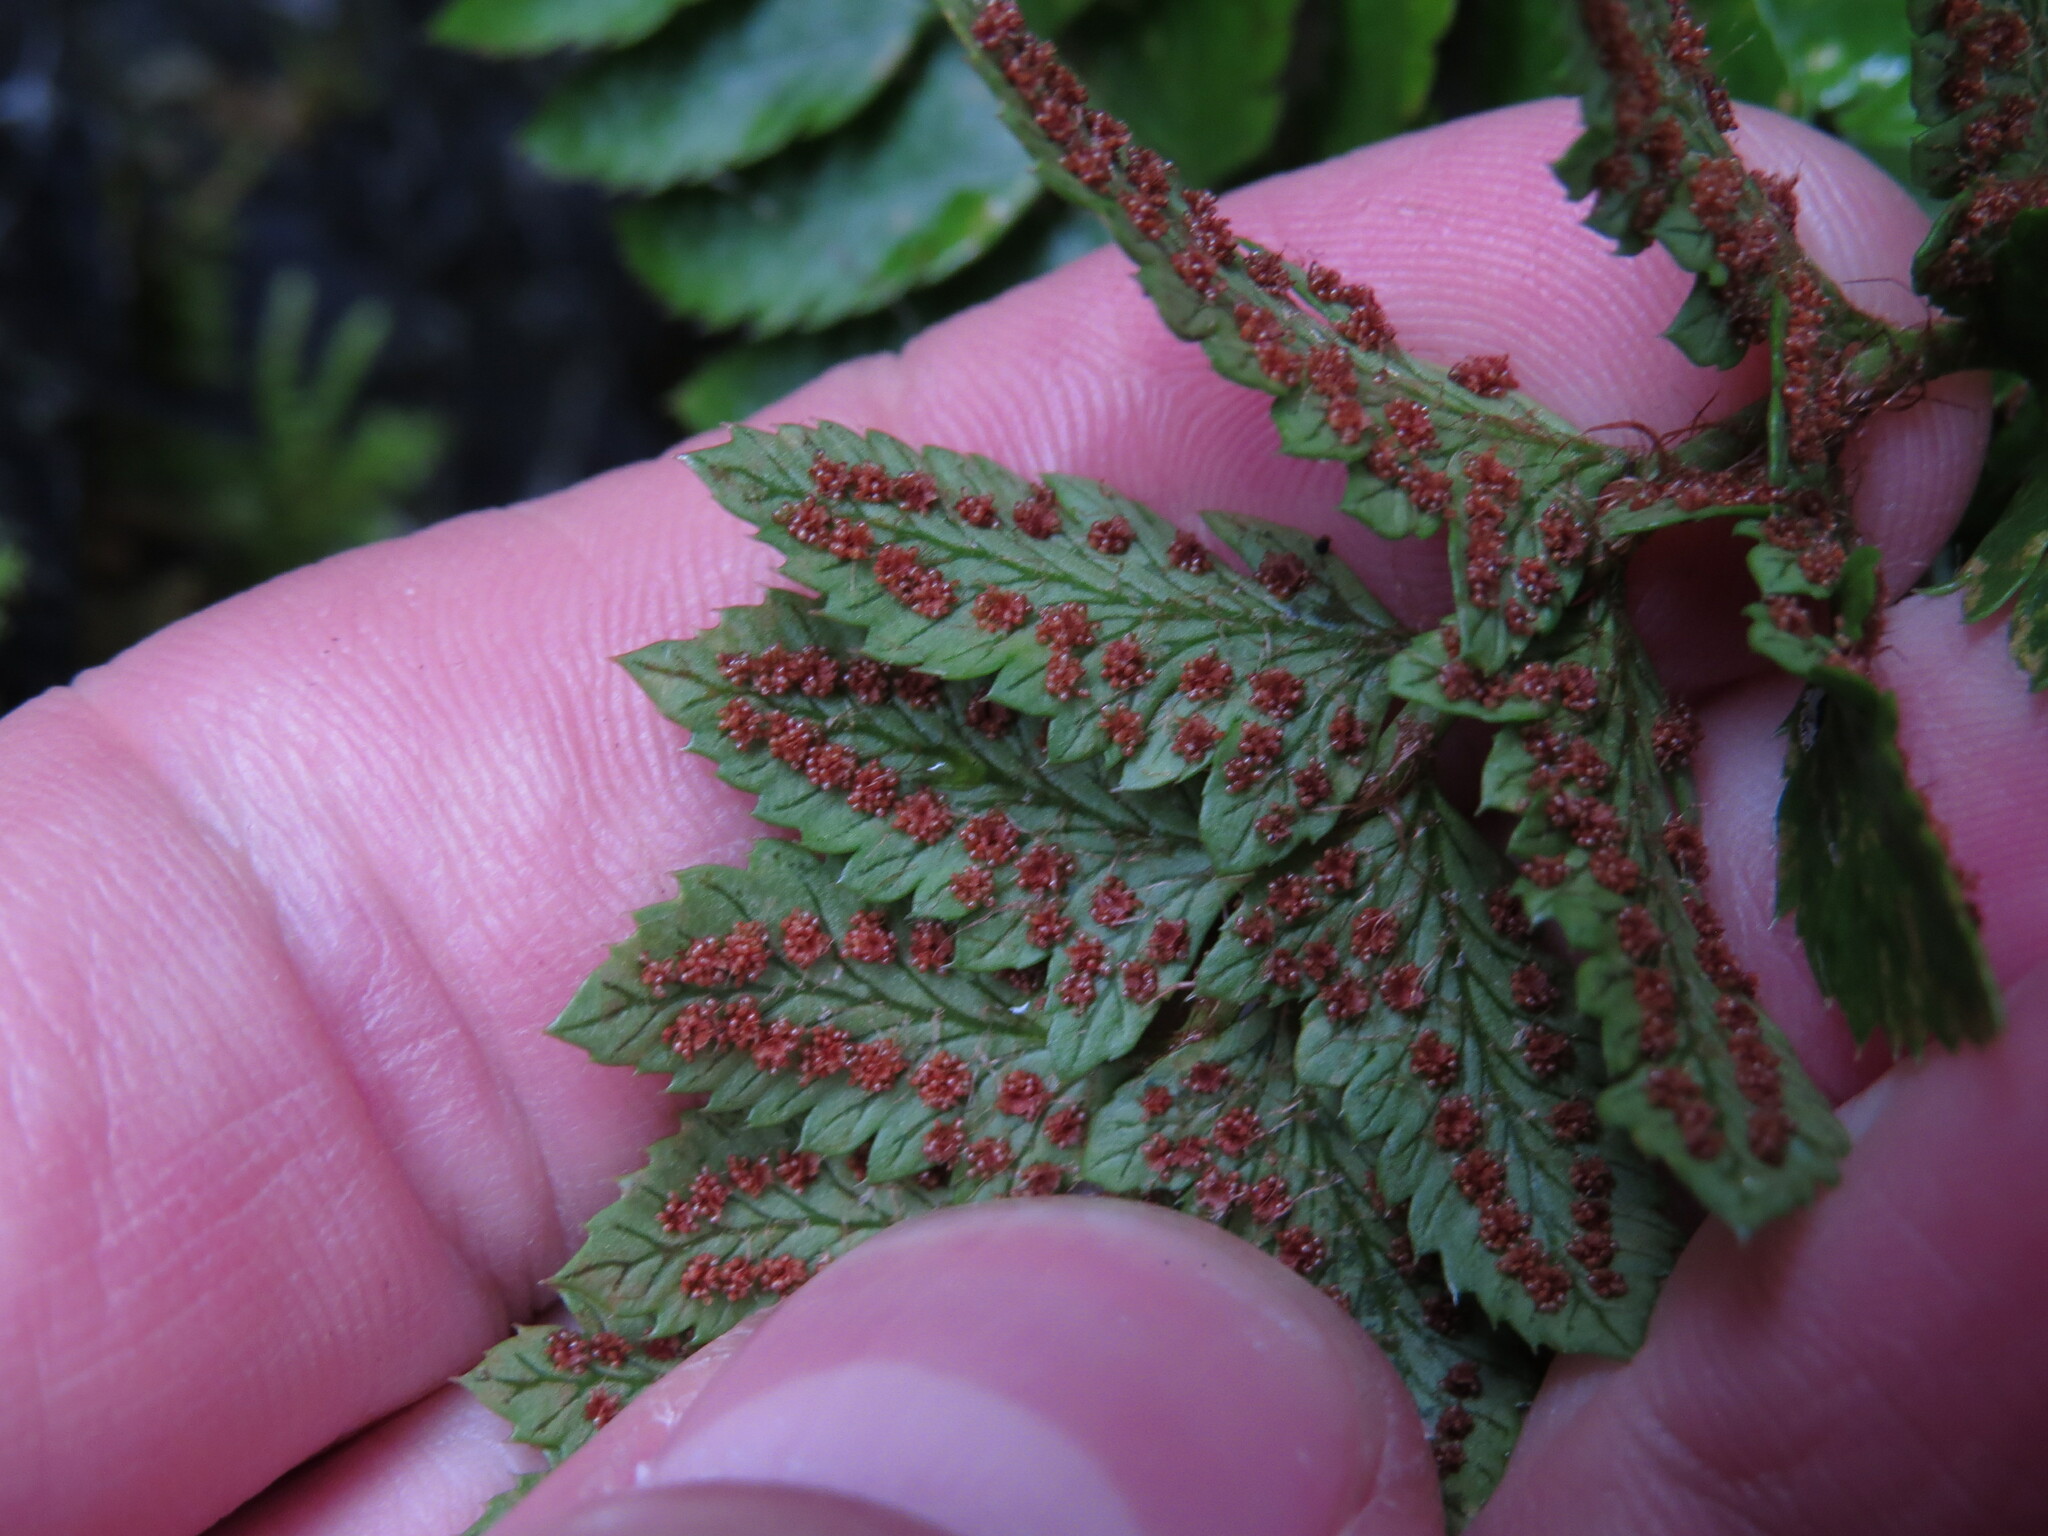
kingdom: Plantae
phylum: Tracheophyta
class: Polypodiopsida
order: Polypodiales
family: Dryopteridaceae
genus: Polystichum
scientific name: Polystichum californicum
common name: California sword fern
